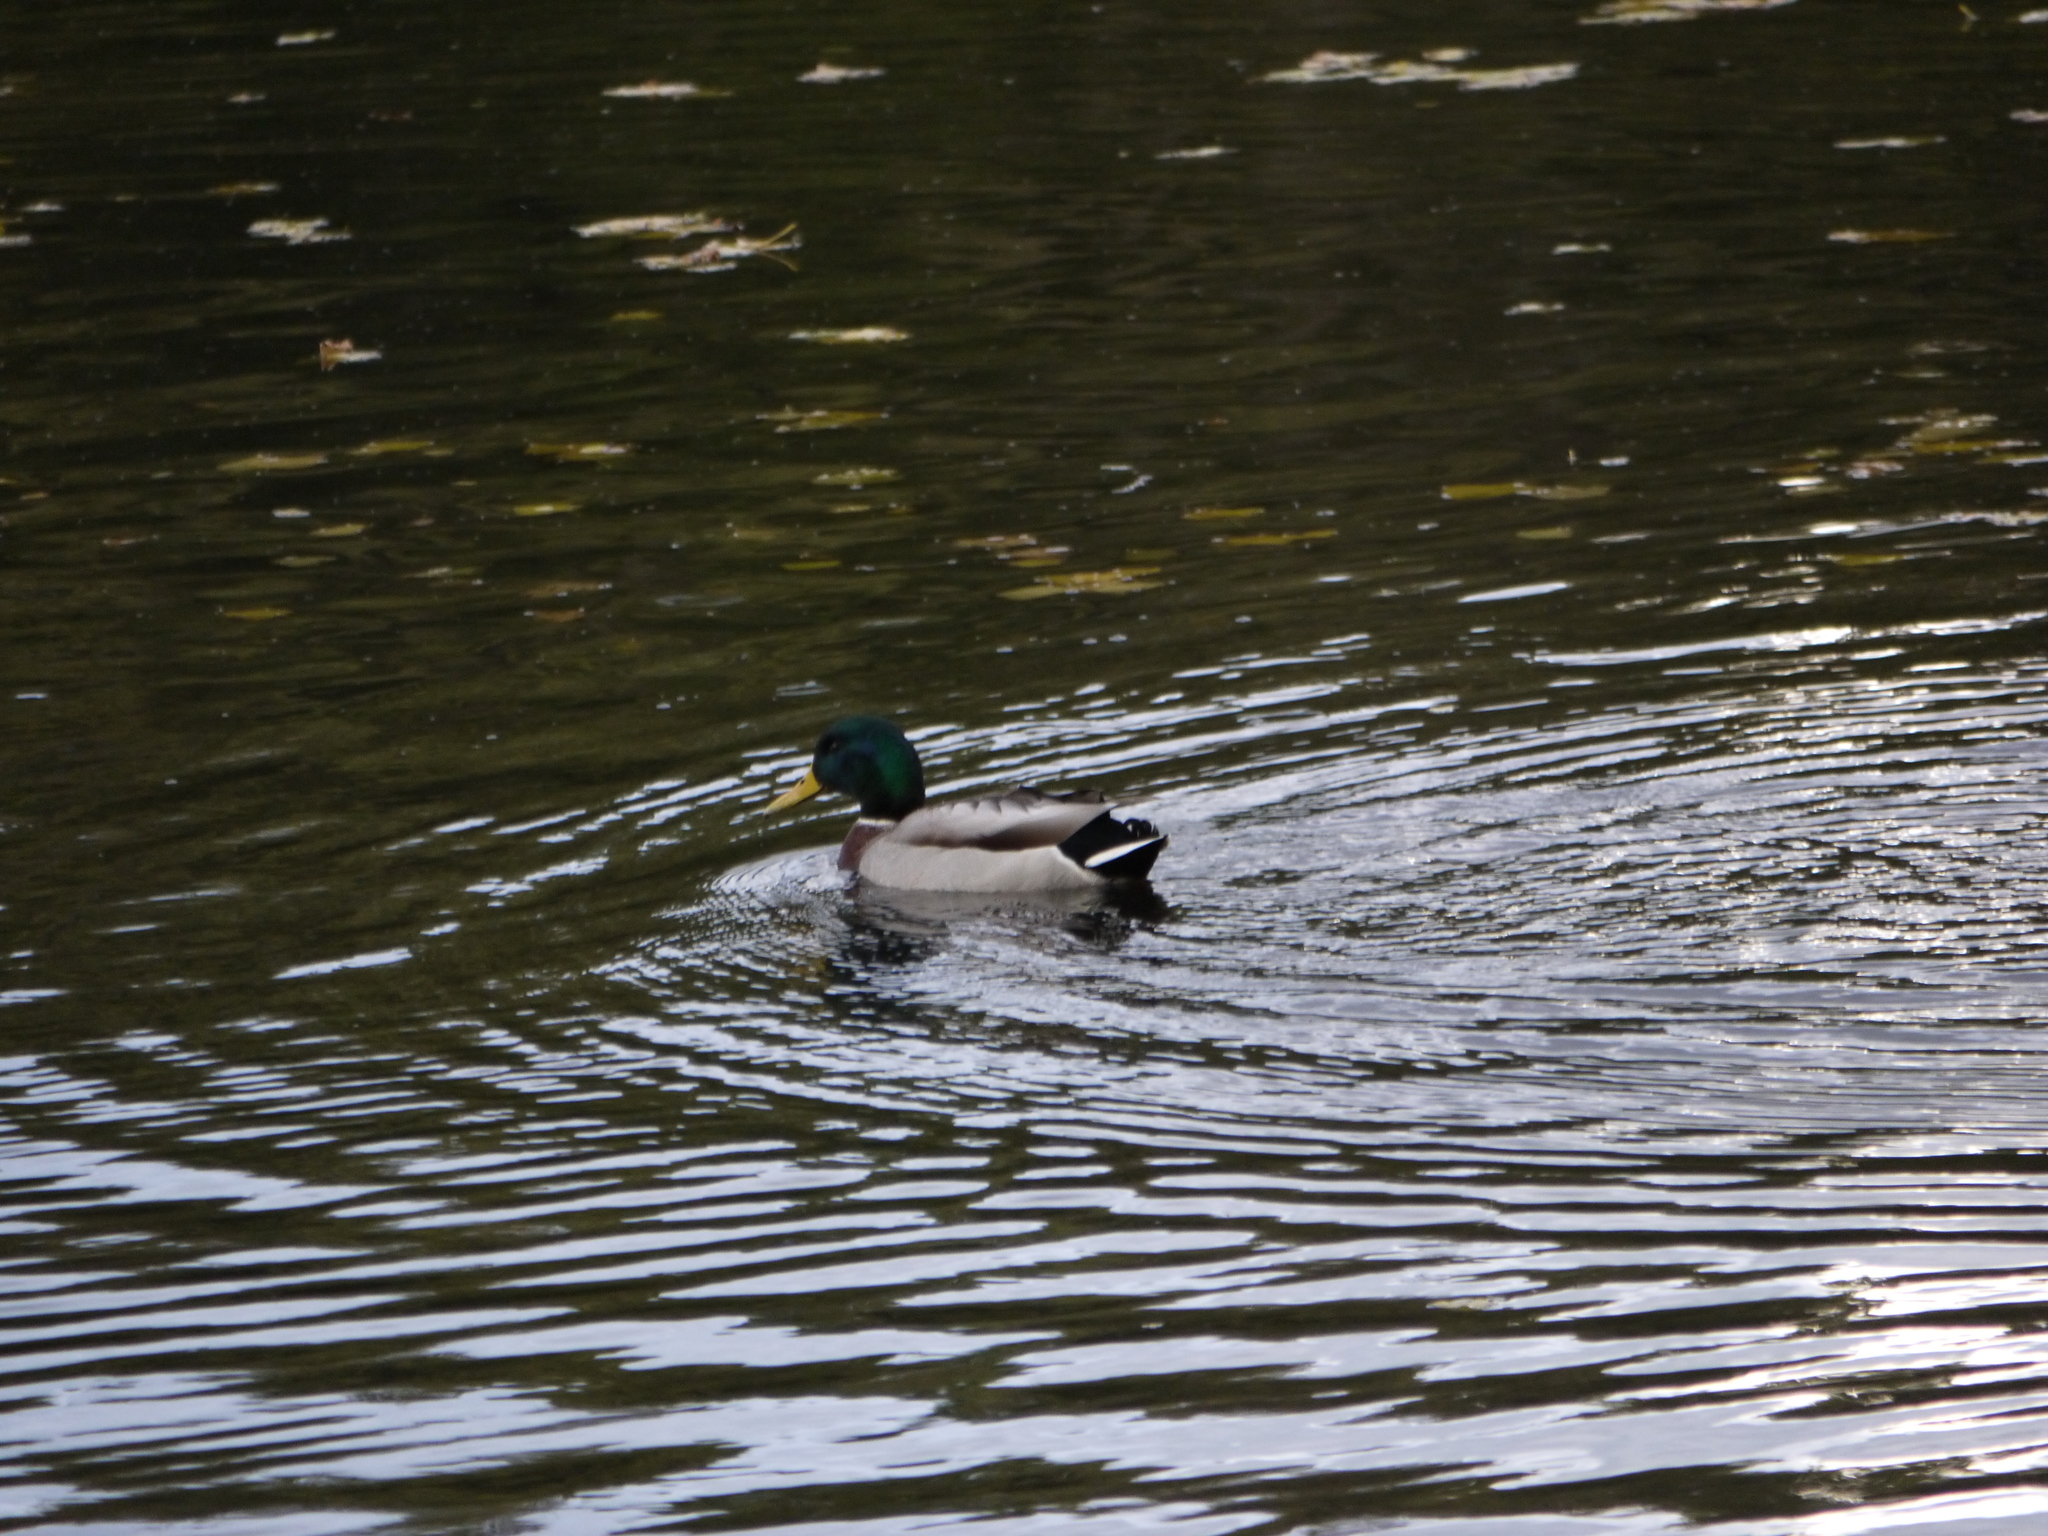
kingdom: Animalia
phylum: Chordata
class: Aves
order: Anseriformes
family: Anatidae
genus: Anas
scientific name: Anas platyrhynchos
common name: Mallard
